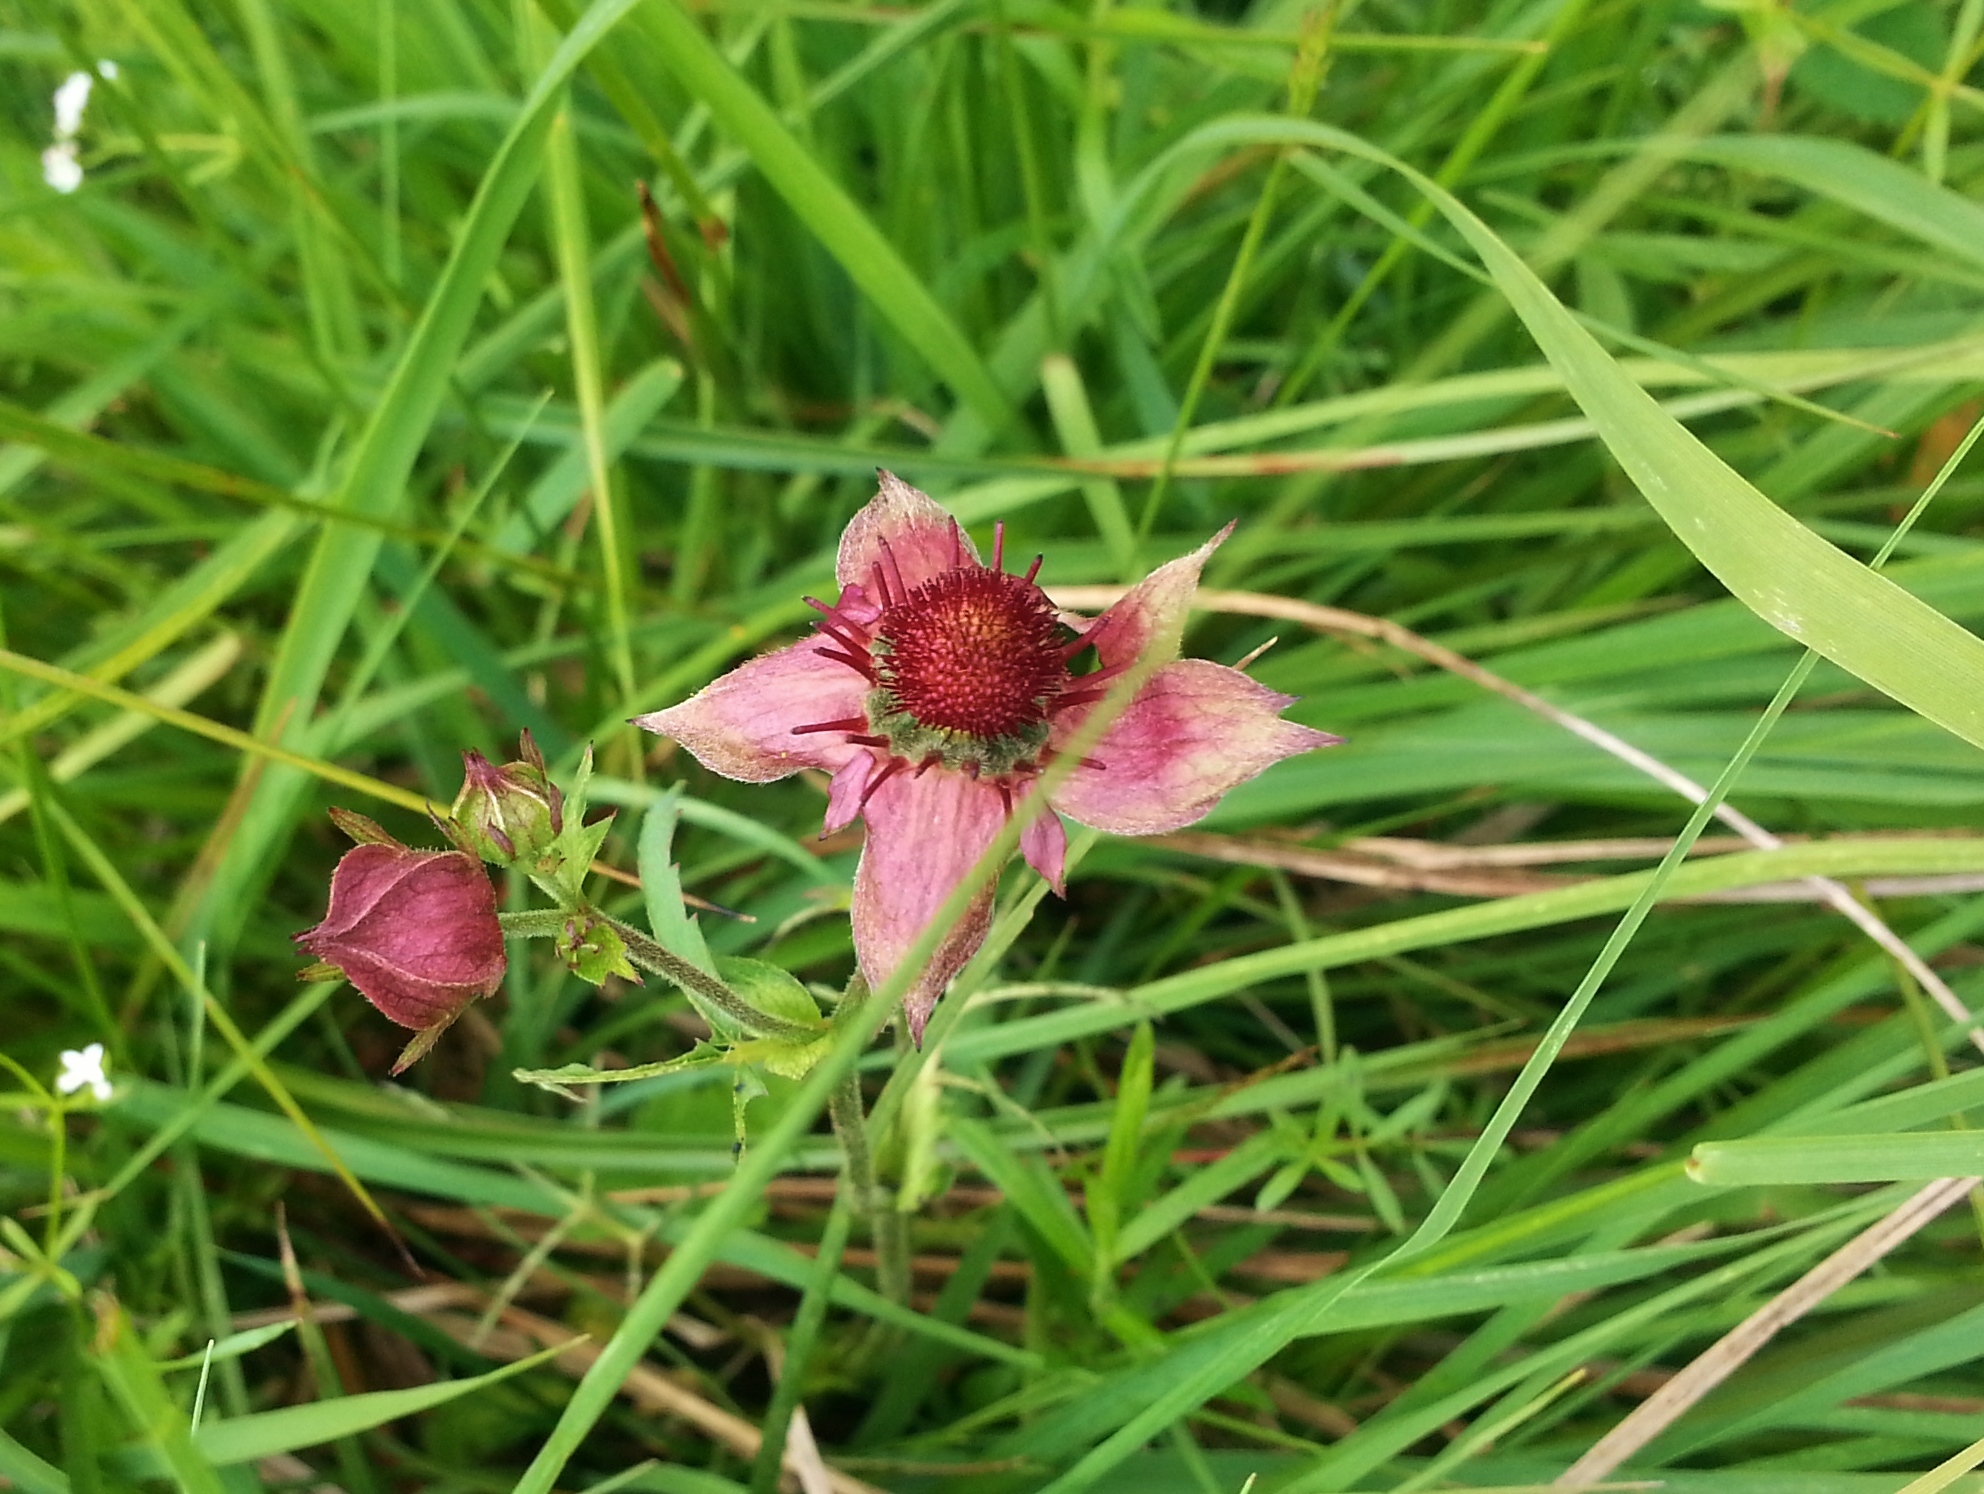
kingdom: Plantae
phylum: Tracheophyta
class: Magnoliopsida
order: Rosales
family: Rosaceae
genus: Comarum
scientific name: Comarum palustre
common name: Marsh cinquefoil
